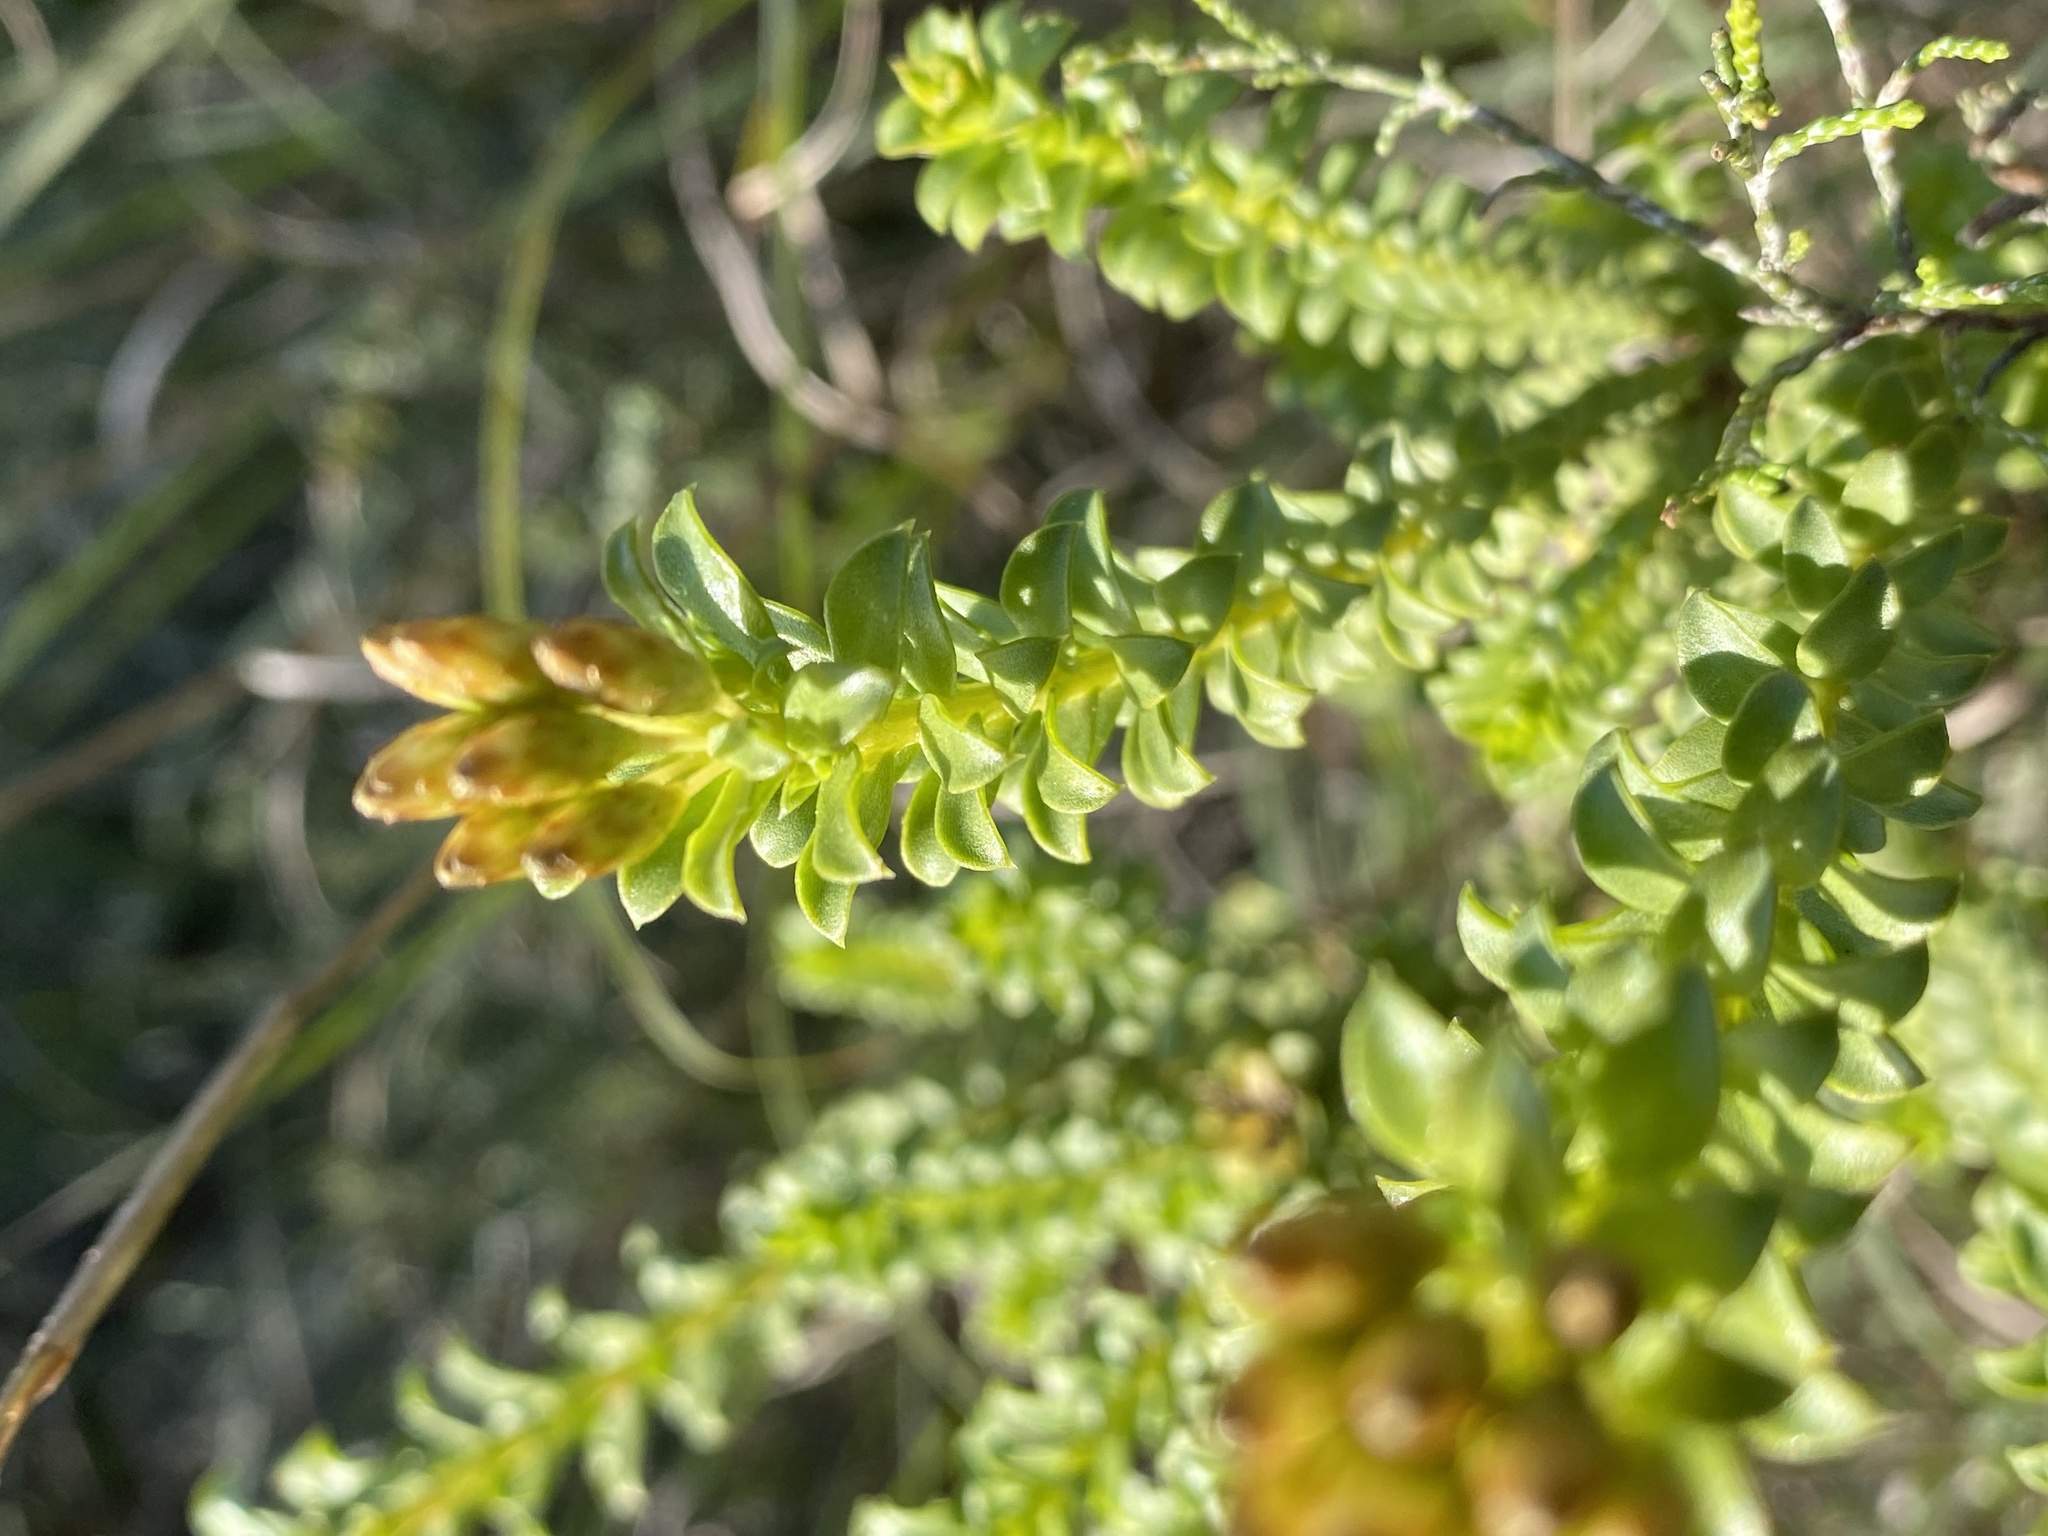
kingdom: Plantae
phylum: Tracheophyta
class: Magnoliopsida
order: Asterales
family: Asteraceae
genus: Oedera
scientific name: Oedera squarrosa
